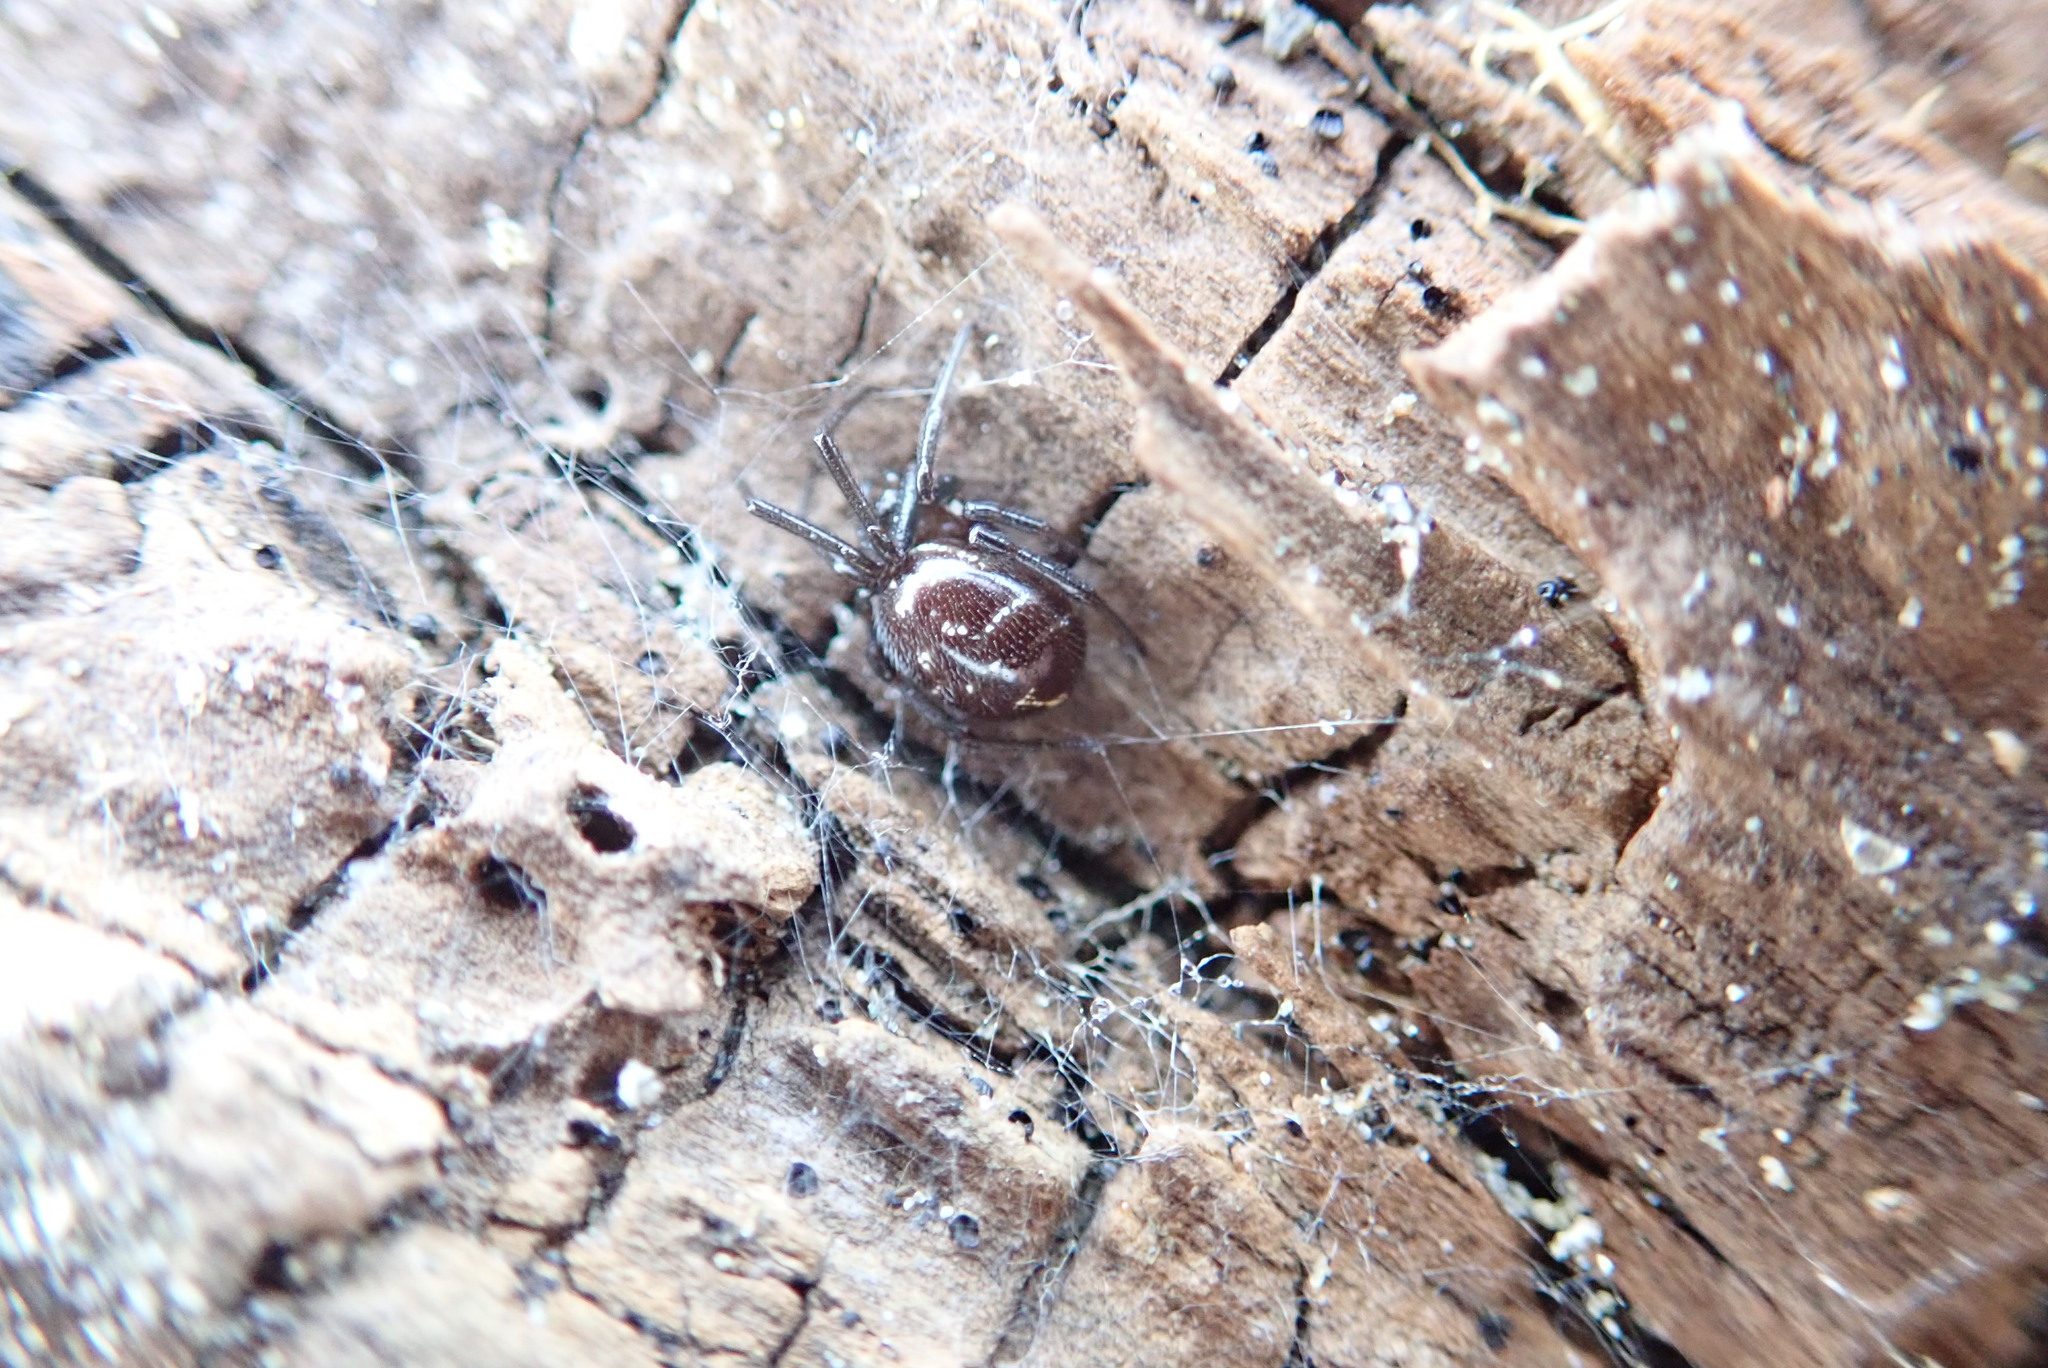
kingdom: Animalia
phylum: Arthropoda
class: Arachnida
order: Araneae
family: Theridiidae
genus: Steatoda
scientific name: Steatoda capensis
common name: Cobweb weaver
